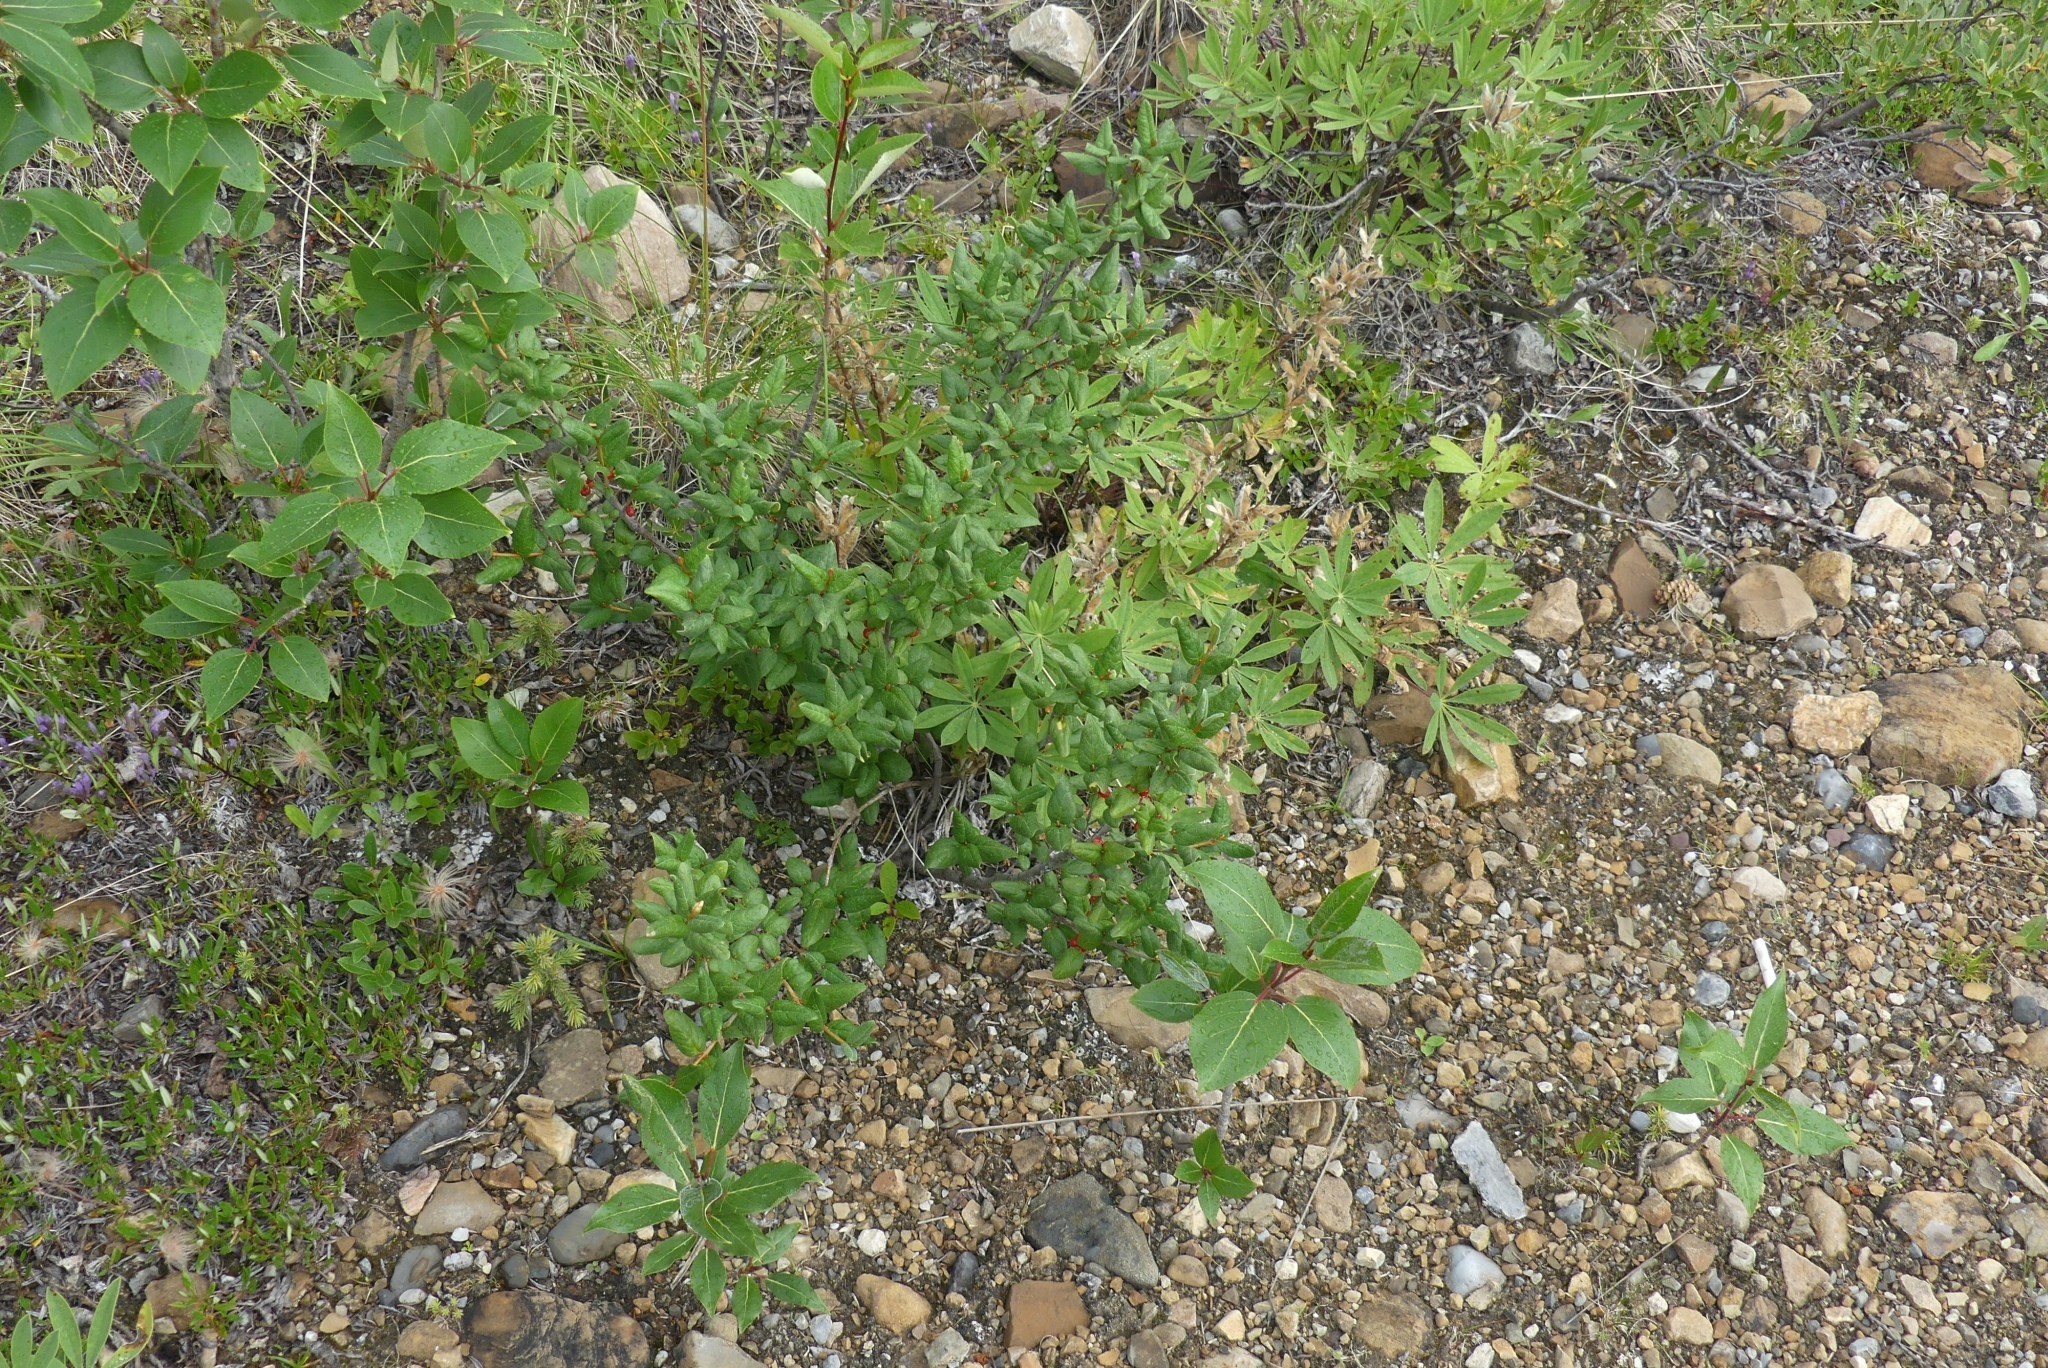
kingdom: Plantae
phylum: Tracheophyta
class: Magnoliopsida
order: Rosales
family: Elaeagnaceae
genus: Shepherdia
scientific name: Shepherdia canadensis
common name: Soapberry
